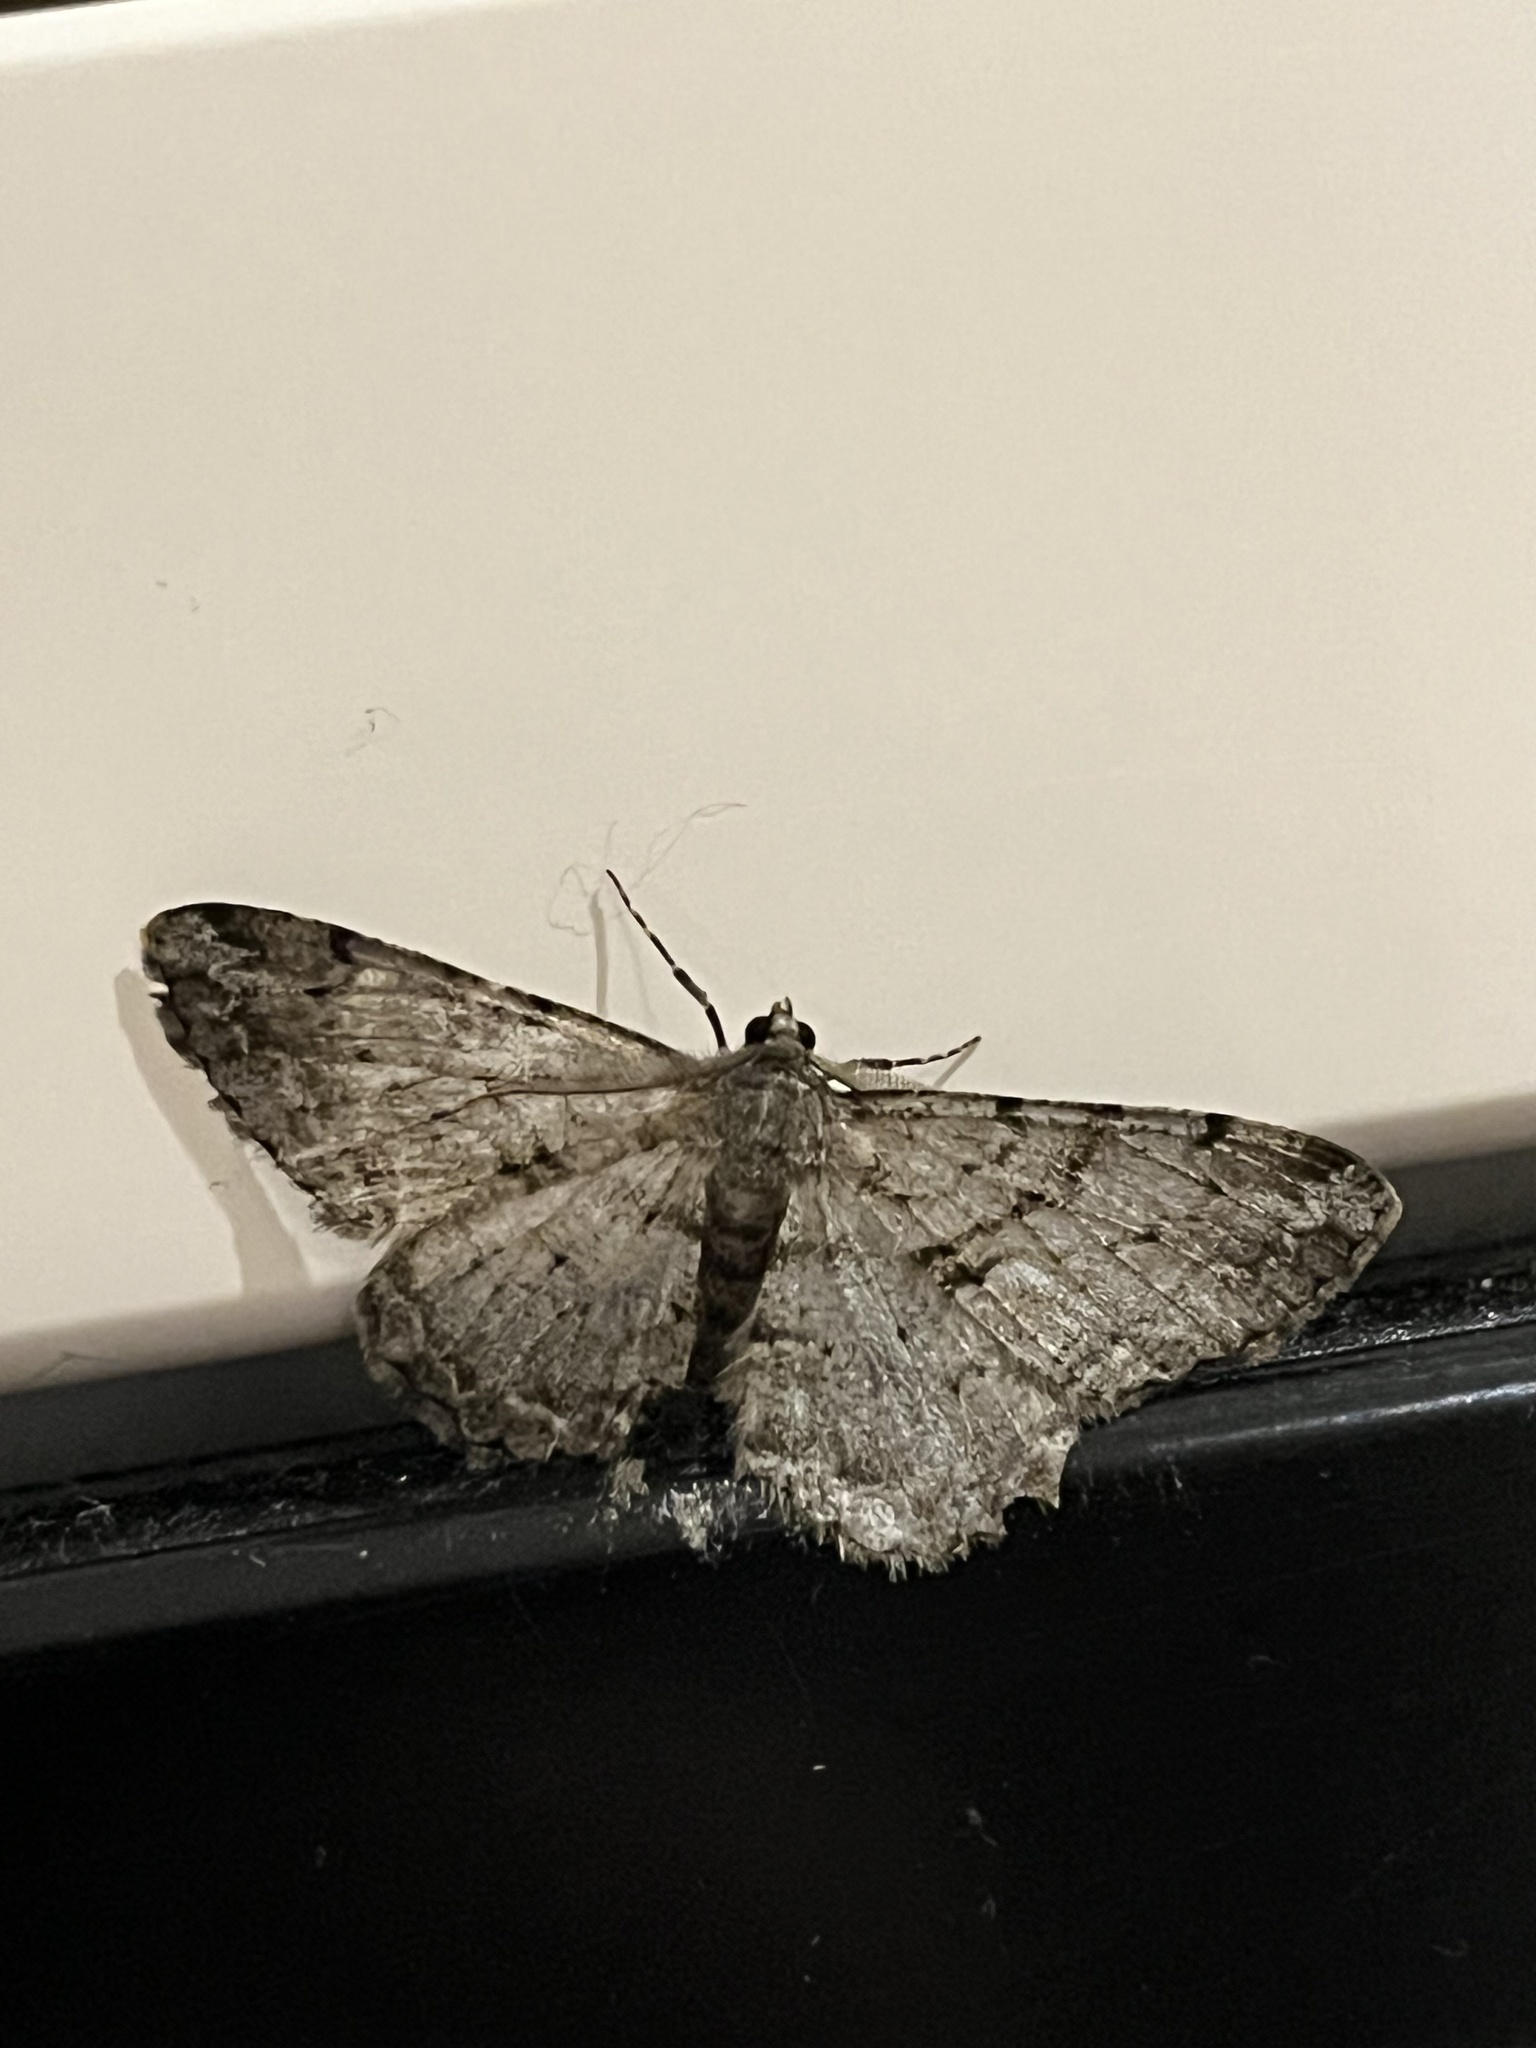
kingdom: Animalia
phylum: Arthropoda
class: Insecta
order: Lepidoptera
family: Geometridae
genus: Peribatodes
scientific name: Peribatodes rhomboidaria
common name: Willow beauty
